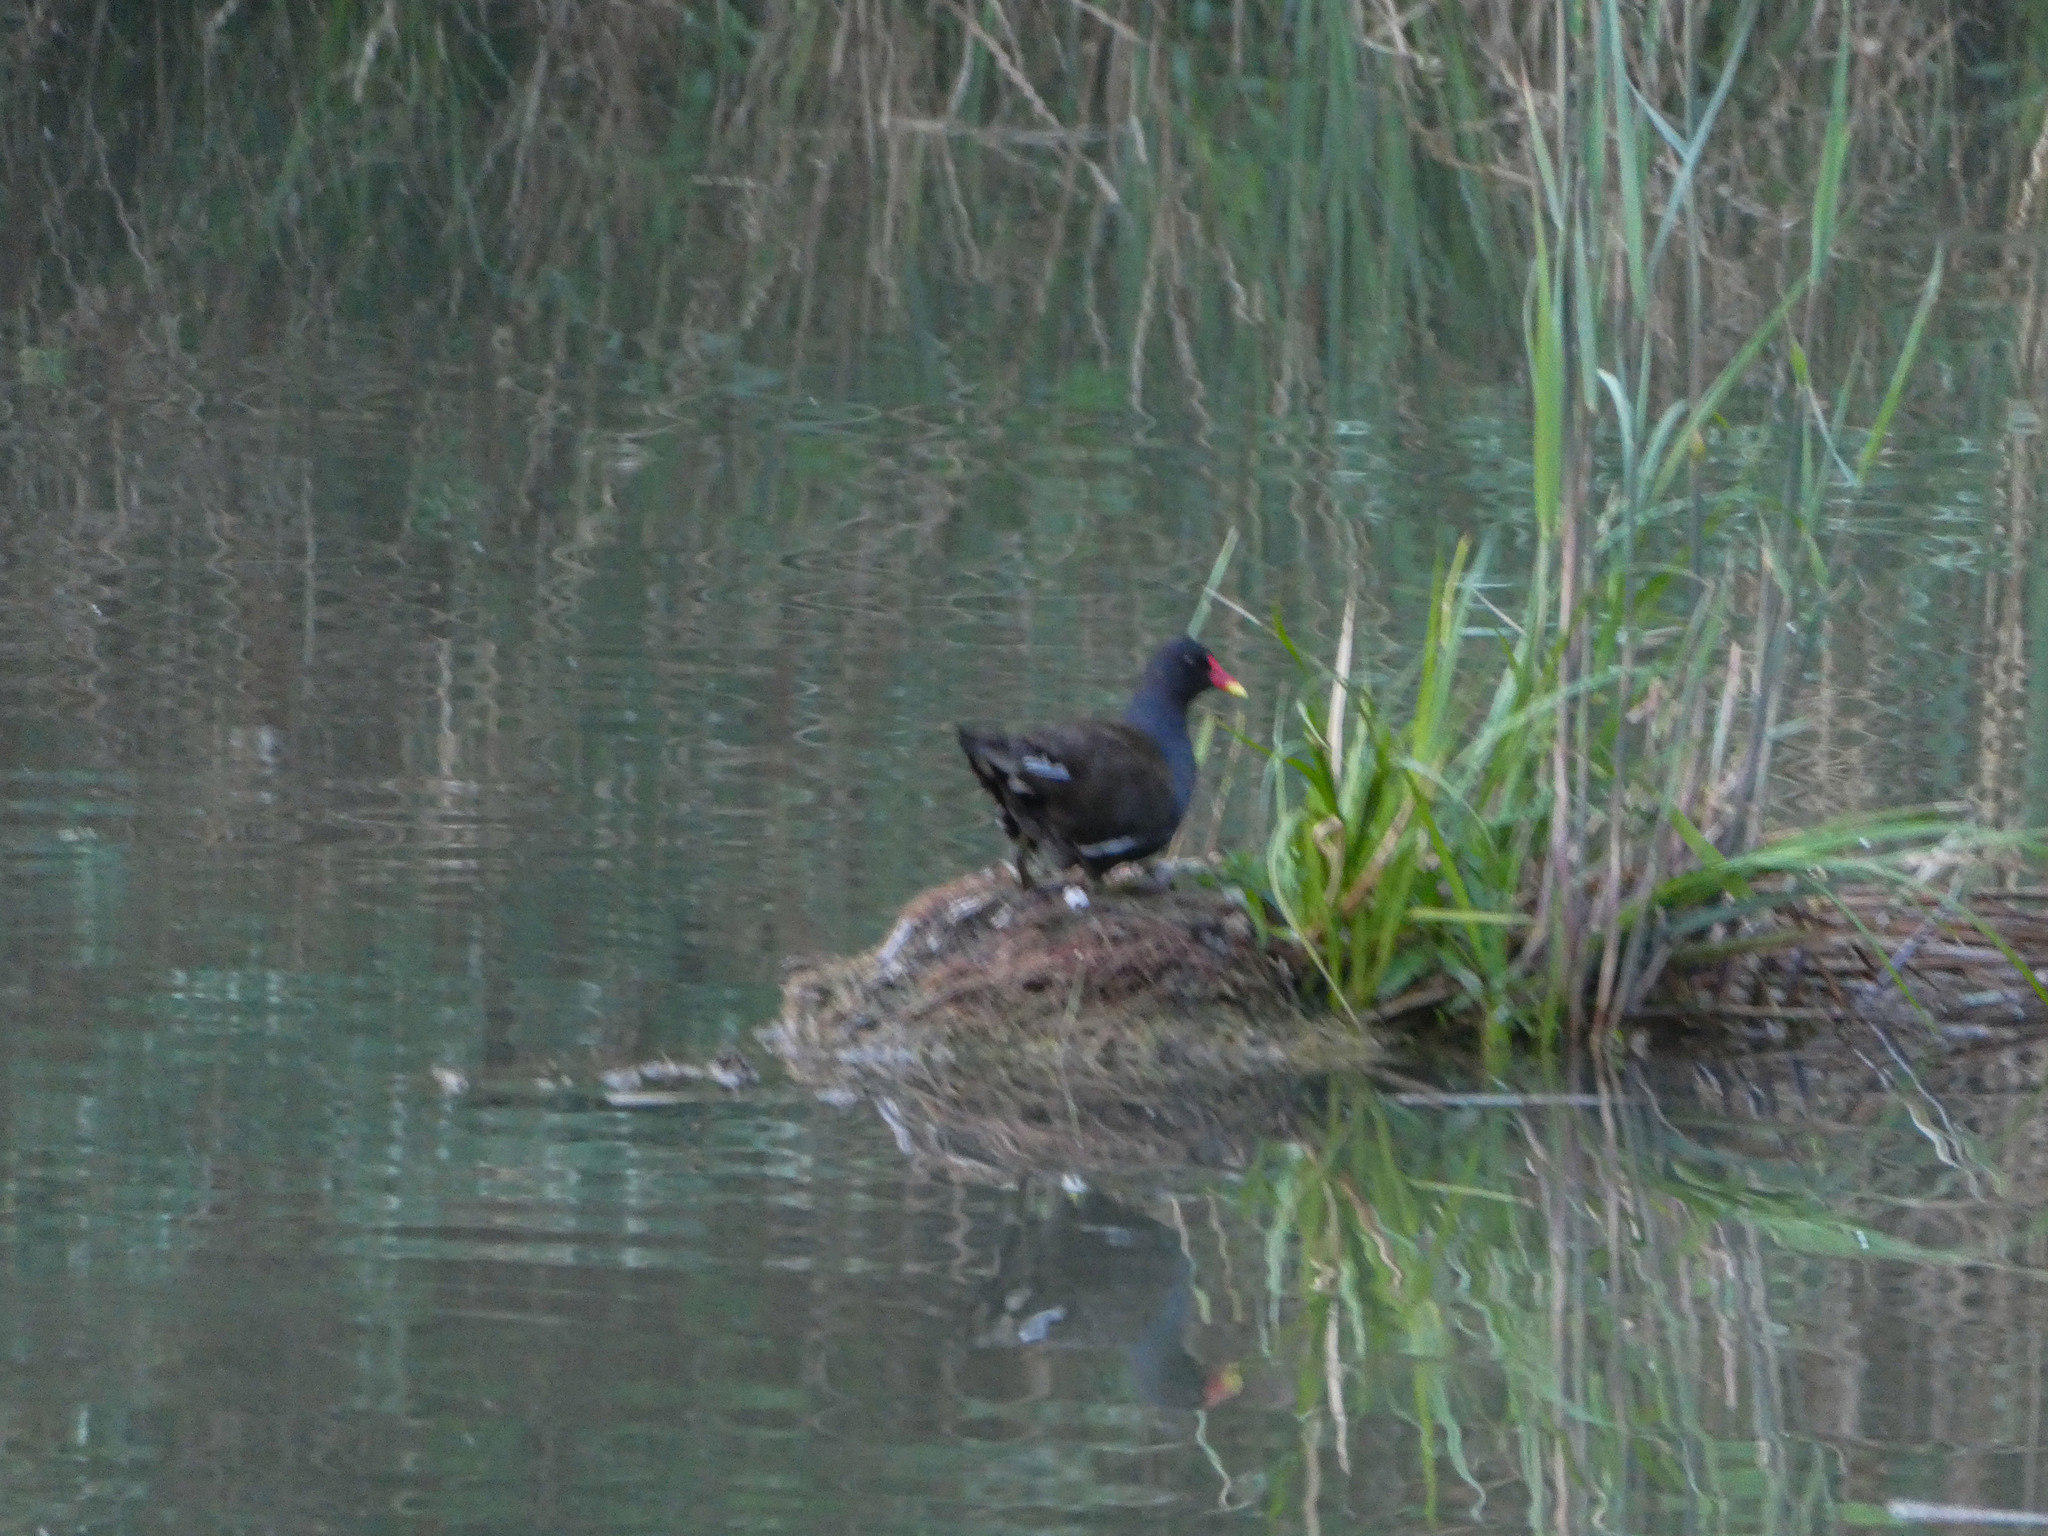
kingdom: Animalia
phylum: Chordata
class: Aves
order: Gruiformes
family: Rallidae
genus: Gallinula
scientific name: Gallinula chloropus
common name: Common moorhen
